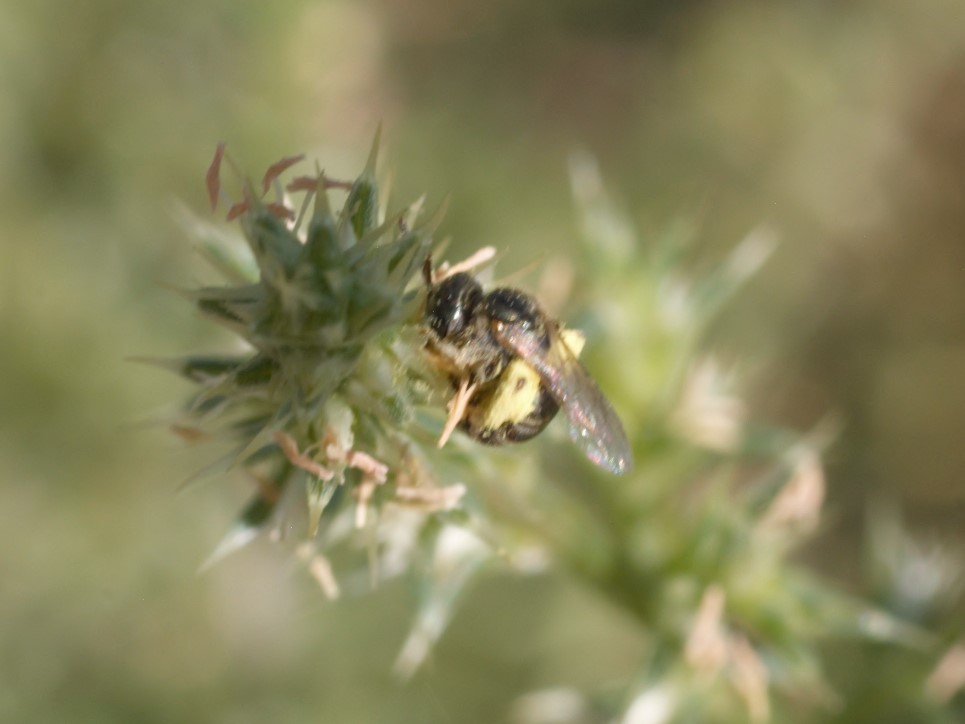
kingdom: Animalia
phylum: Arthropoda
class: Insecta
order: Hymenoptera
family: Halictidae
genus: Halictus
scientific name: Halictus tripartitus
